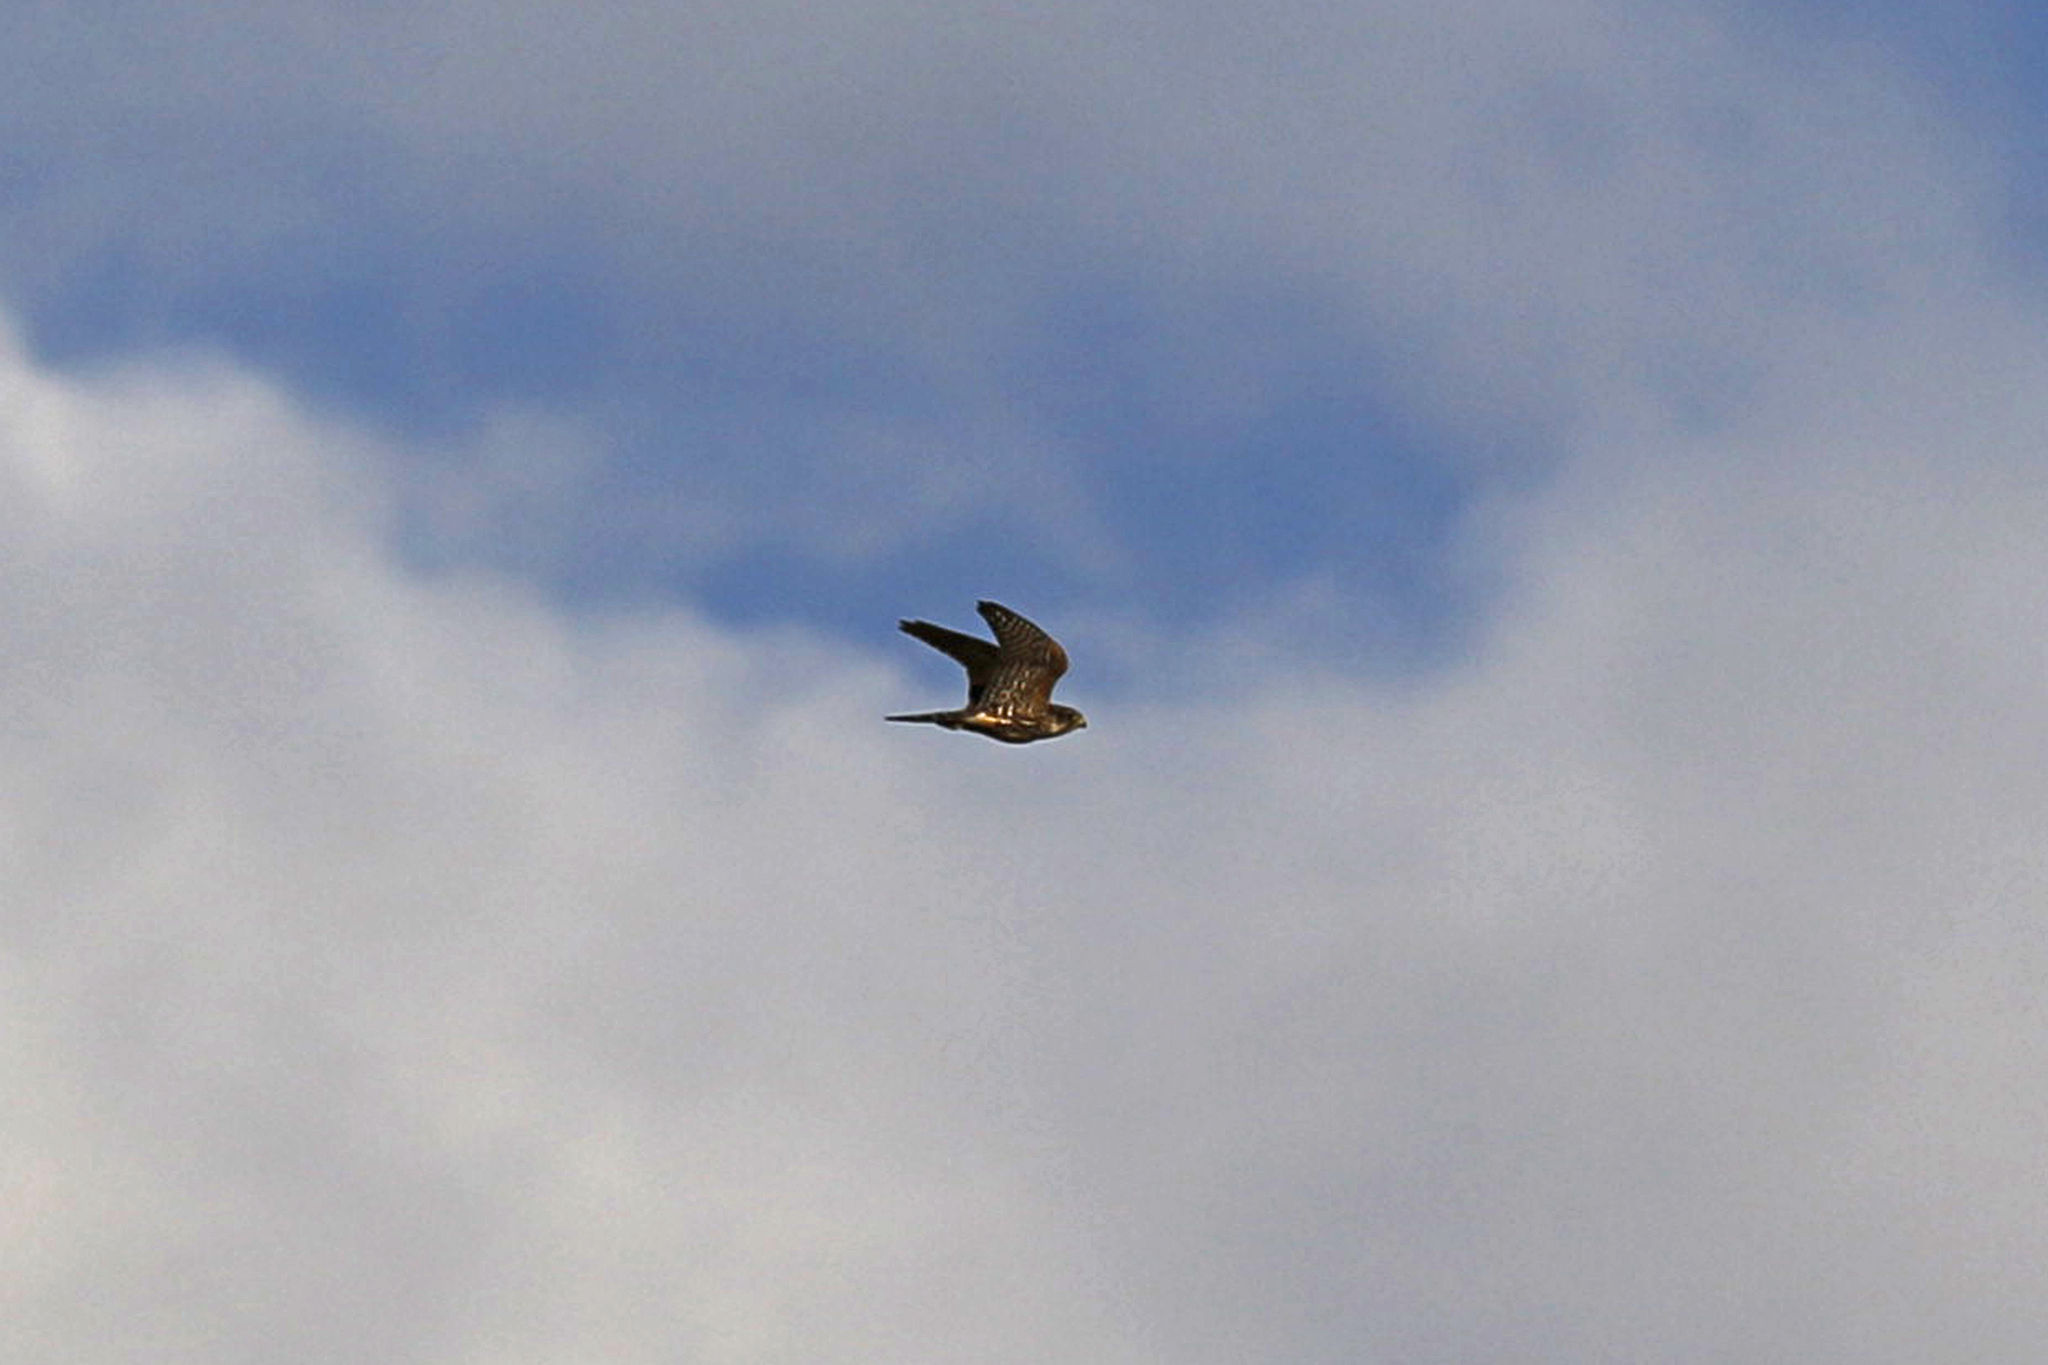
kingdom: Animalia
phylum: Chordata
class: Aves
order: Falconiformes
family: Falconidae
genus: Falco
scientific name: Falco columbarius
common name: Merlin
